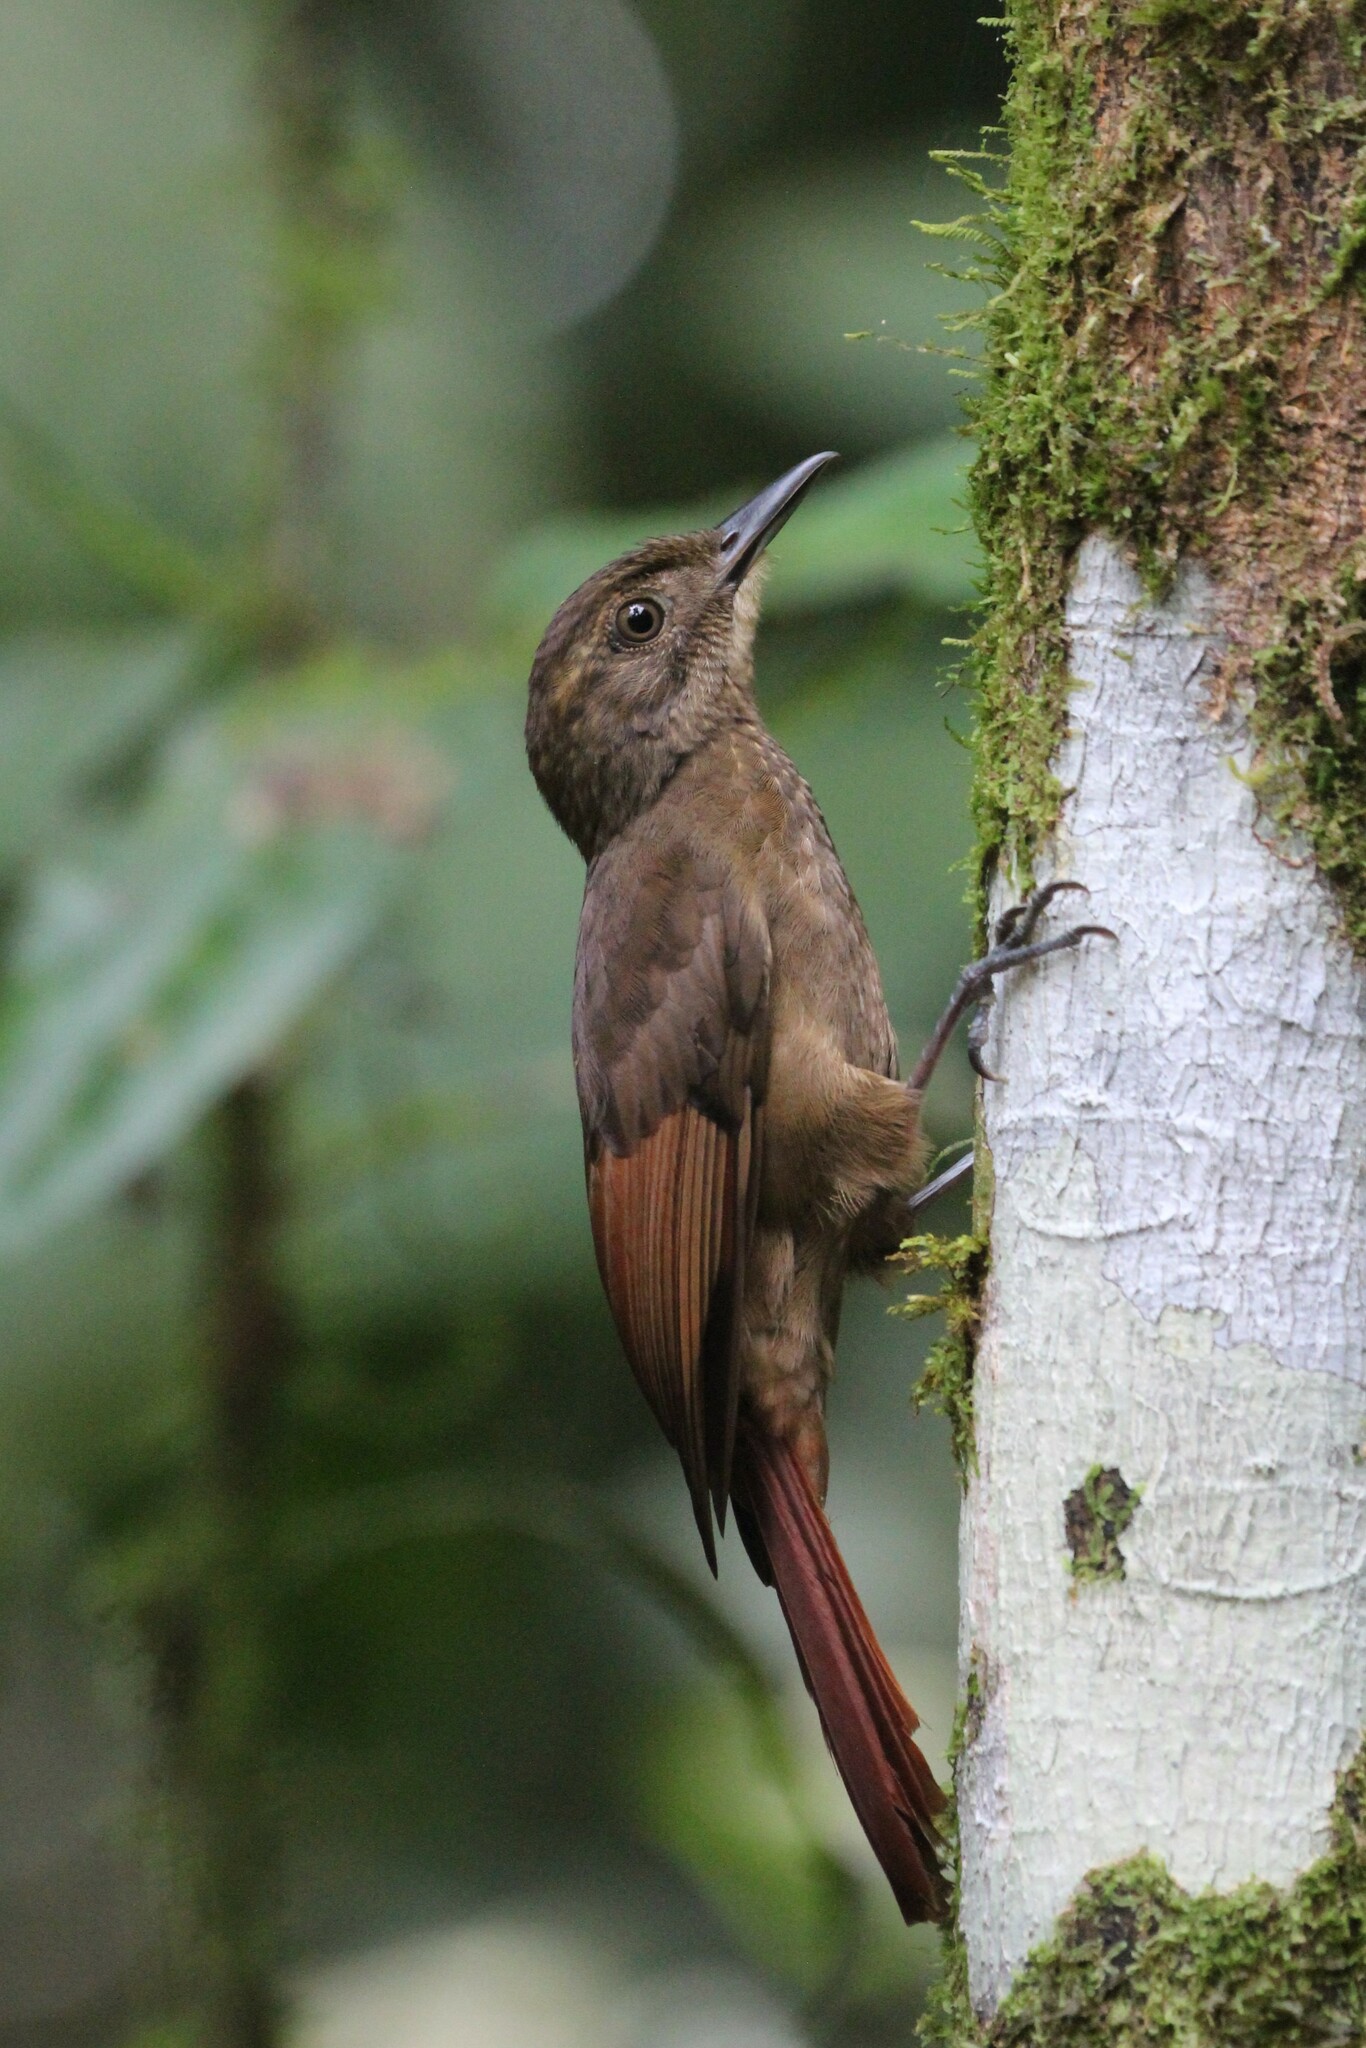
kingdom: Animalia
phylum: Chordata
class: Aves
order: Passeriformes
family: Furnariidae
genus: Dendrocincla
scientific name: Dendrocincla anabatina
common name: Tawny-winged woodcreeper
